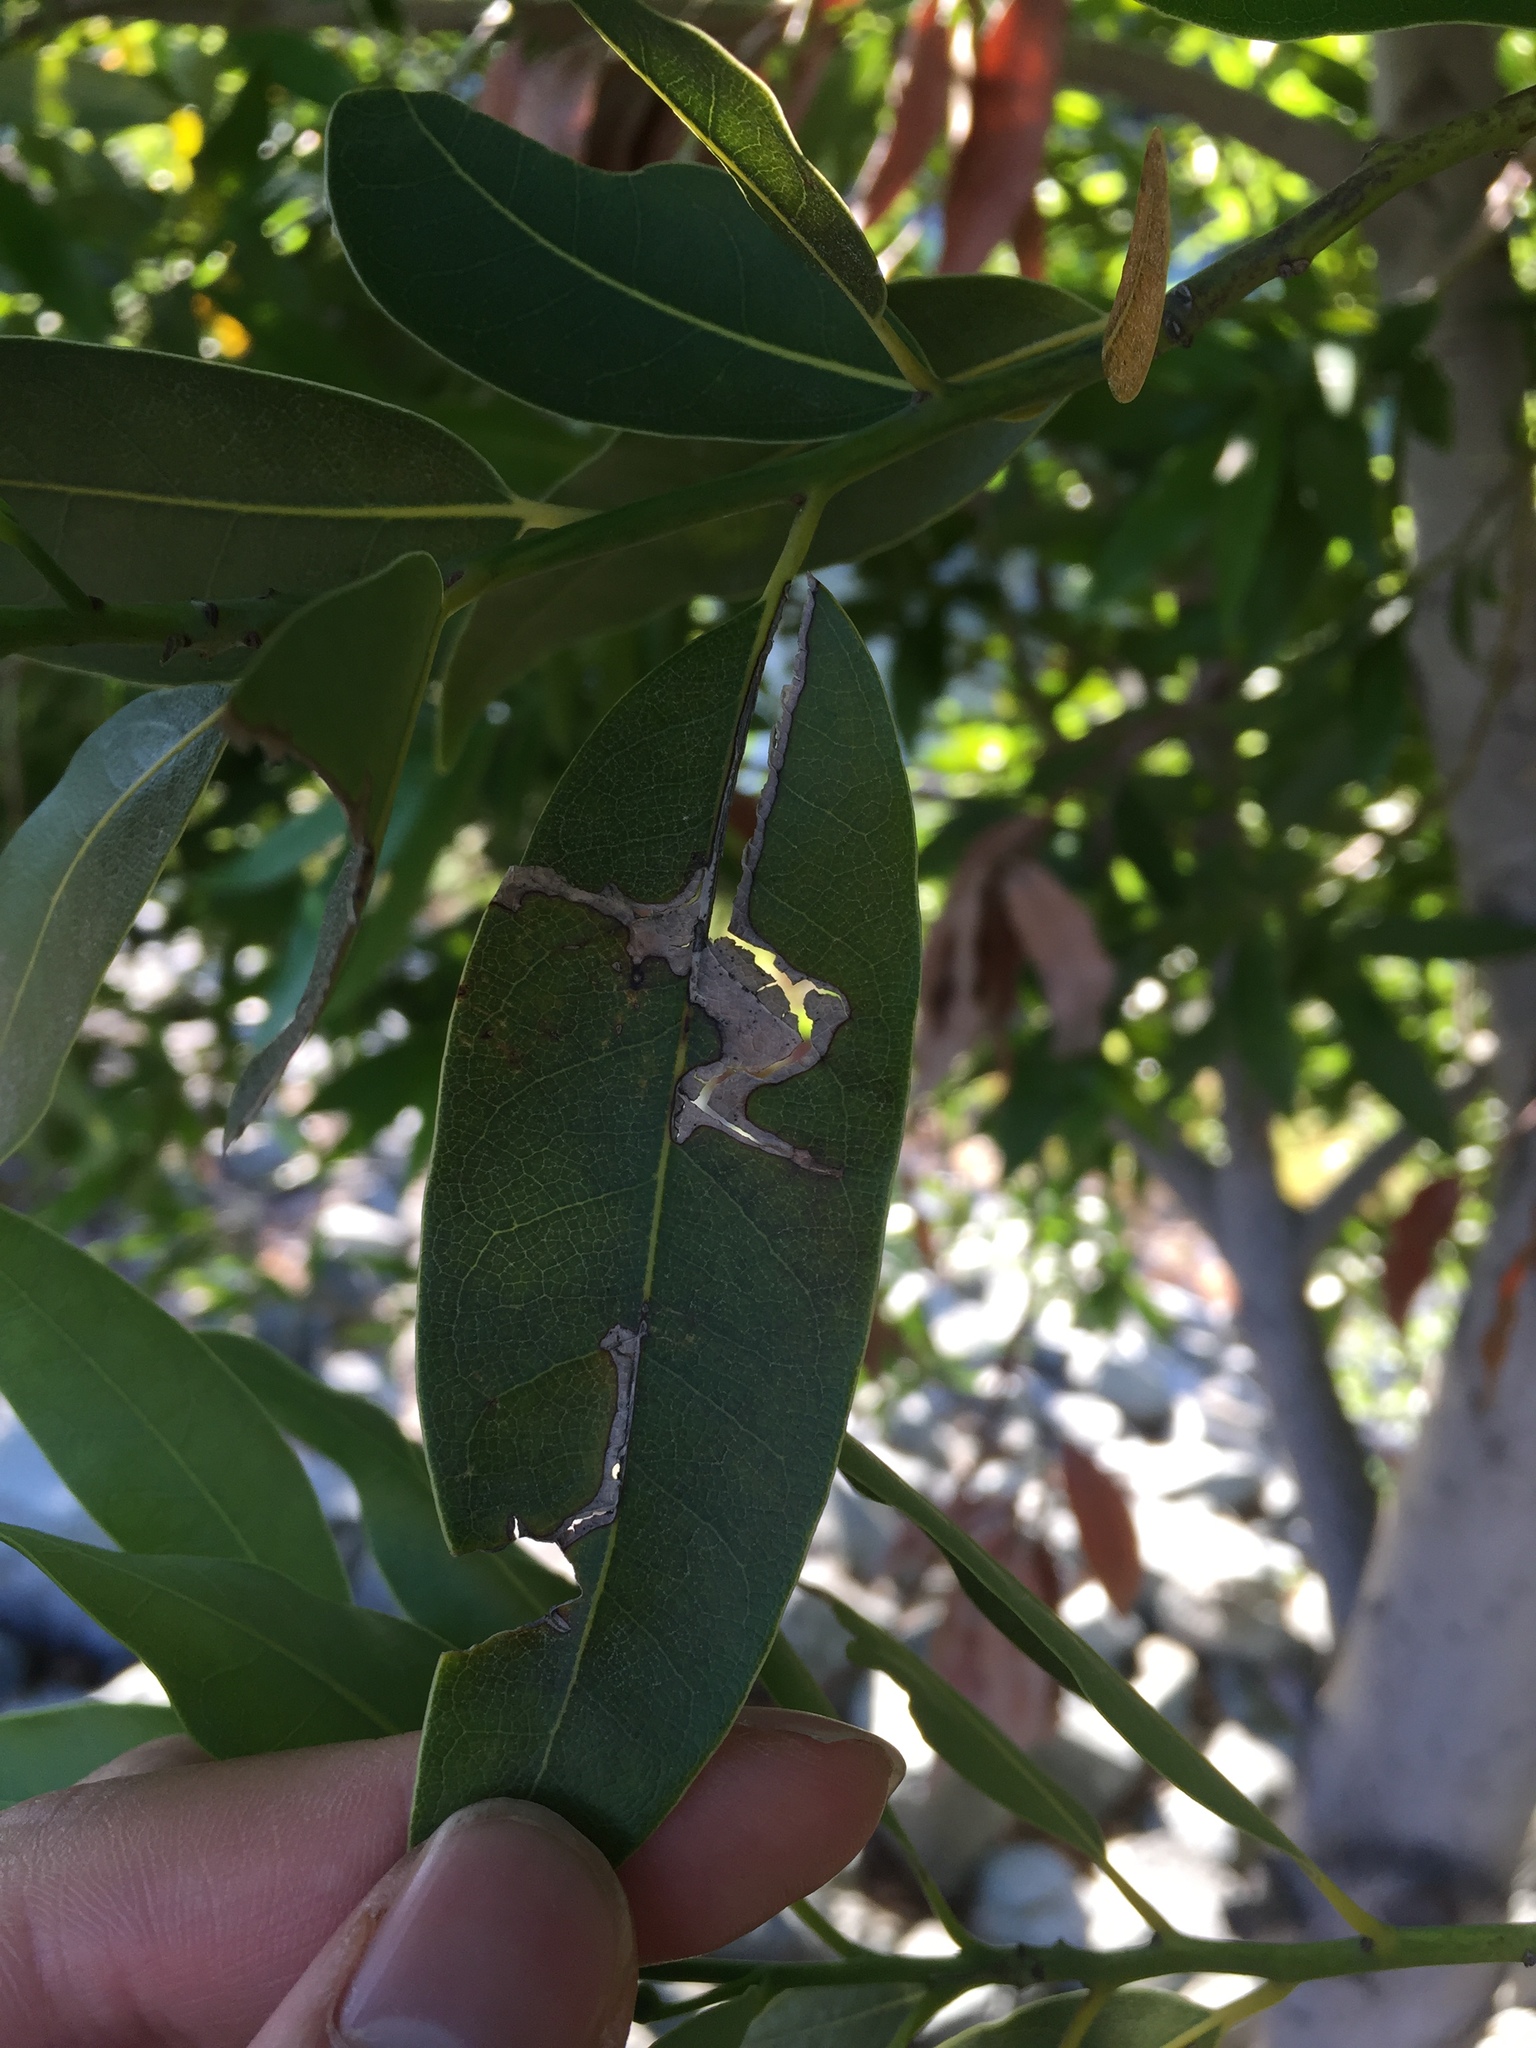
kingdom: Plantae
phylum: Tracheophyta
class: Magnoliopsida
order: Laurales
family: Lauraceae
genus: Umbellularia
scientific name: Umbellularia californica
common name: California bay
